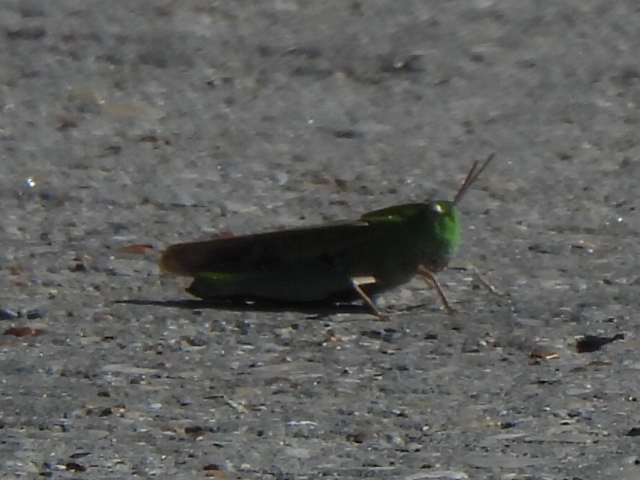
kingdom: Animalia
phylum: Arthropoda
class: Insecta
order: Orthoptera
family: Acrididae
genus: Chortophaga
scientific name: Chortophaga viridifasciata
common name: Green-striped grasshopper
